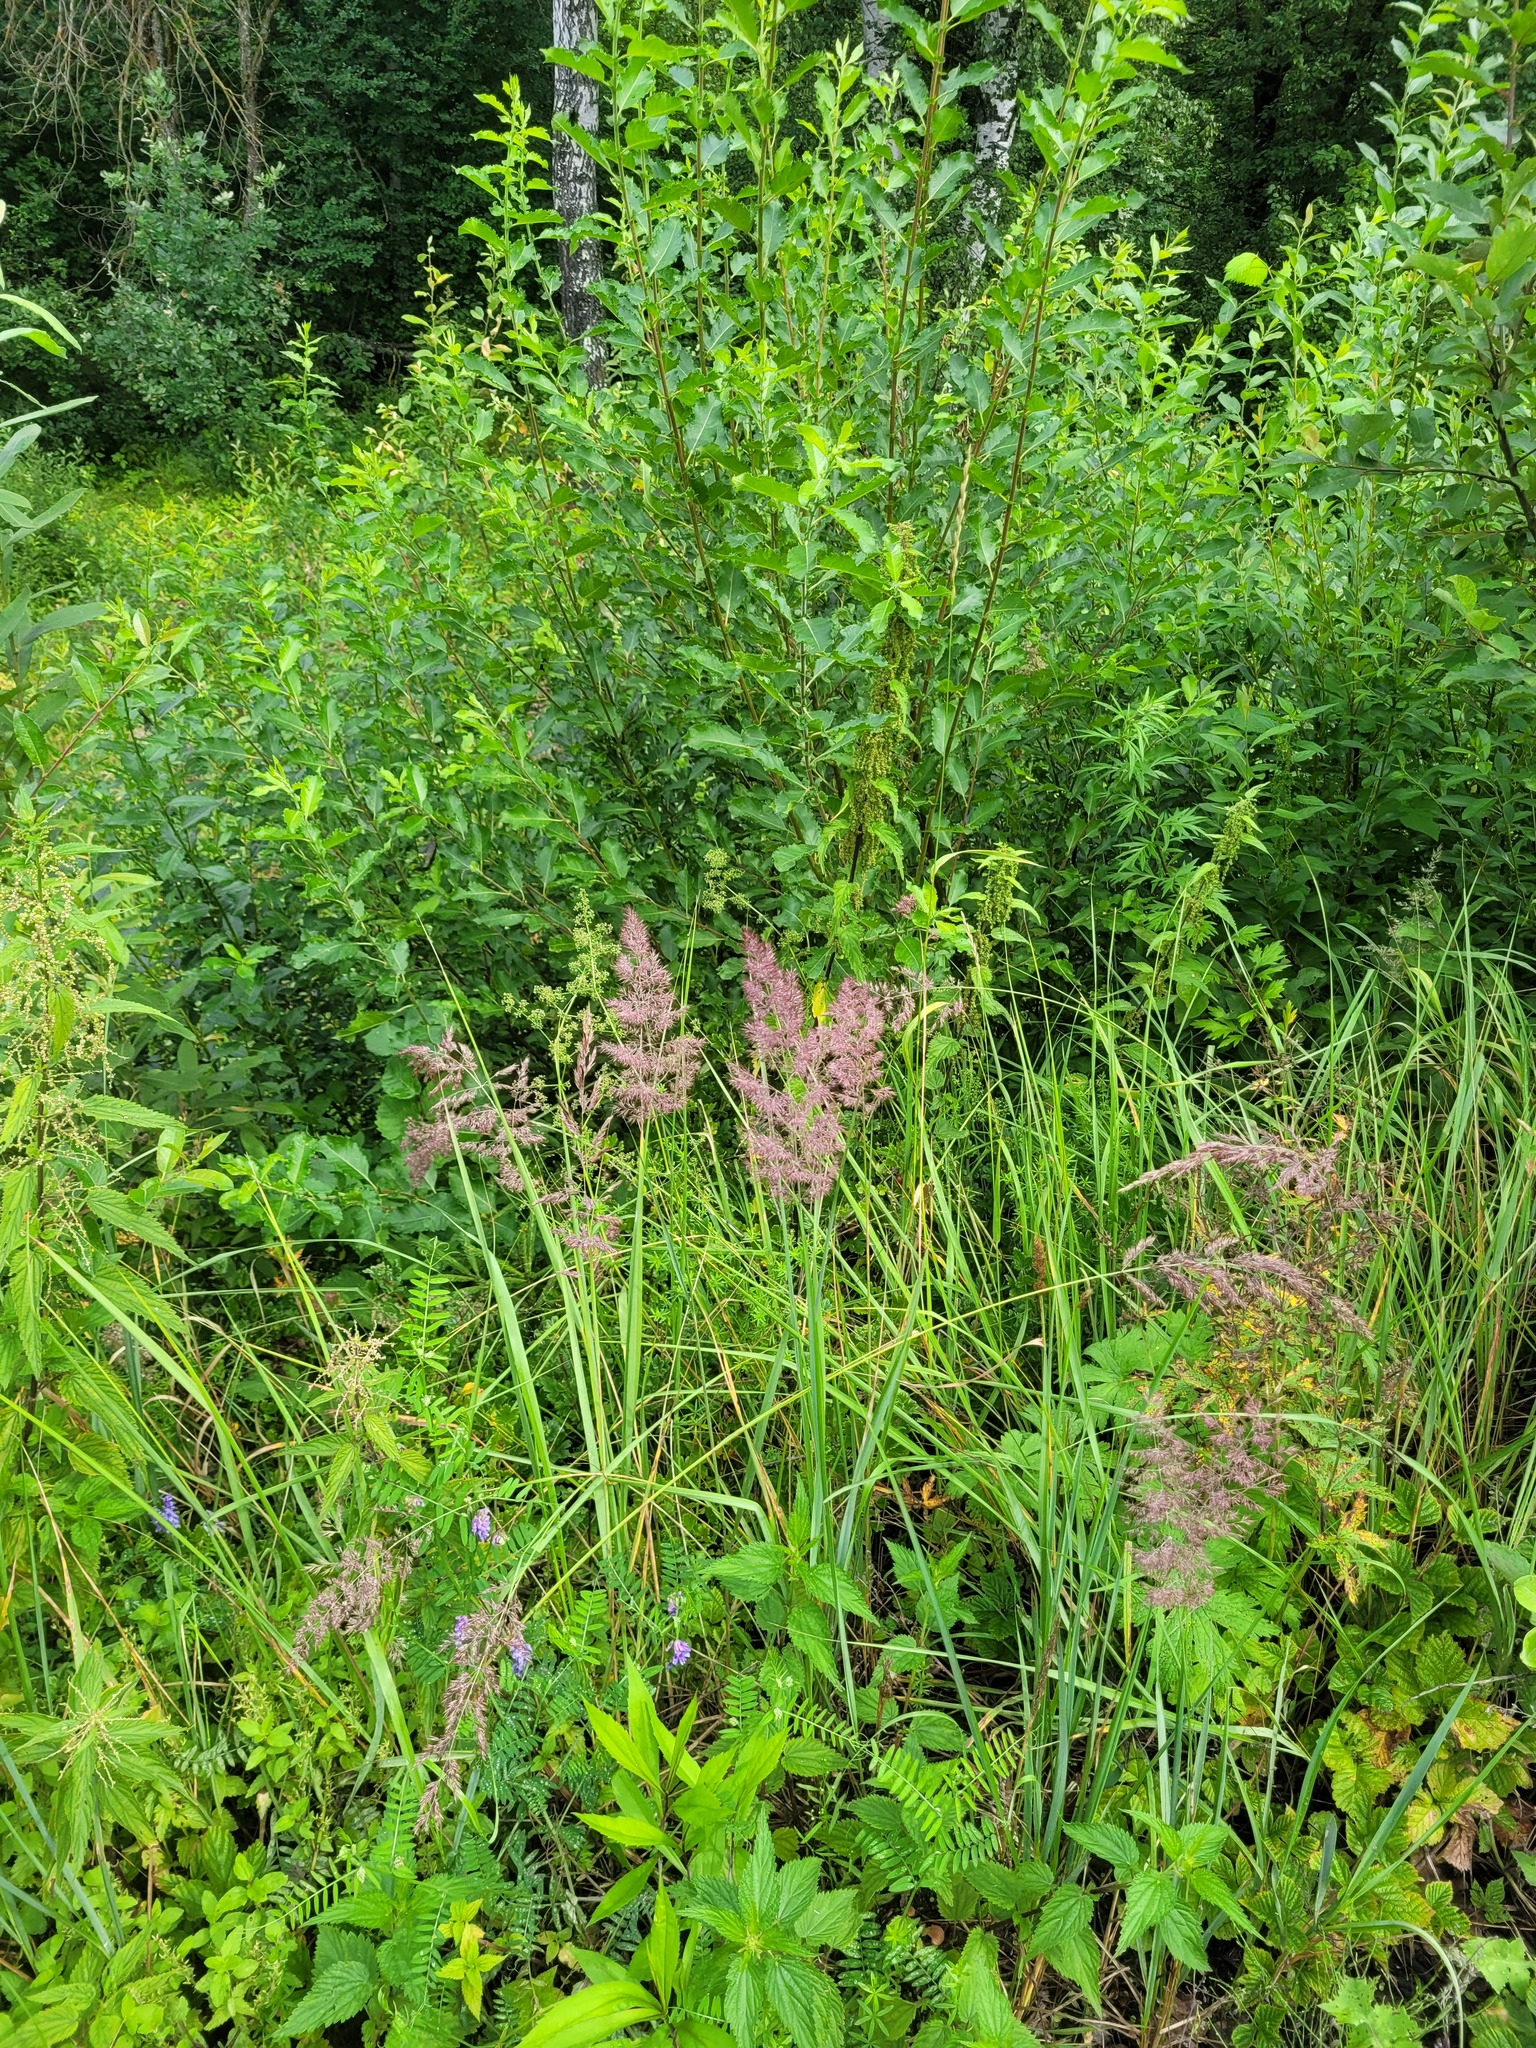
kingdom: Plantae
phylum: Tracheophyta
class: Liliopsida
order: Poales
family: Poaceae
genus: Calamagrostis
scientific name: Calamagrostis epigejos
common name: Wood small-reed
